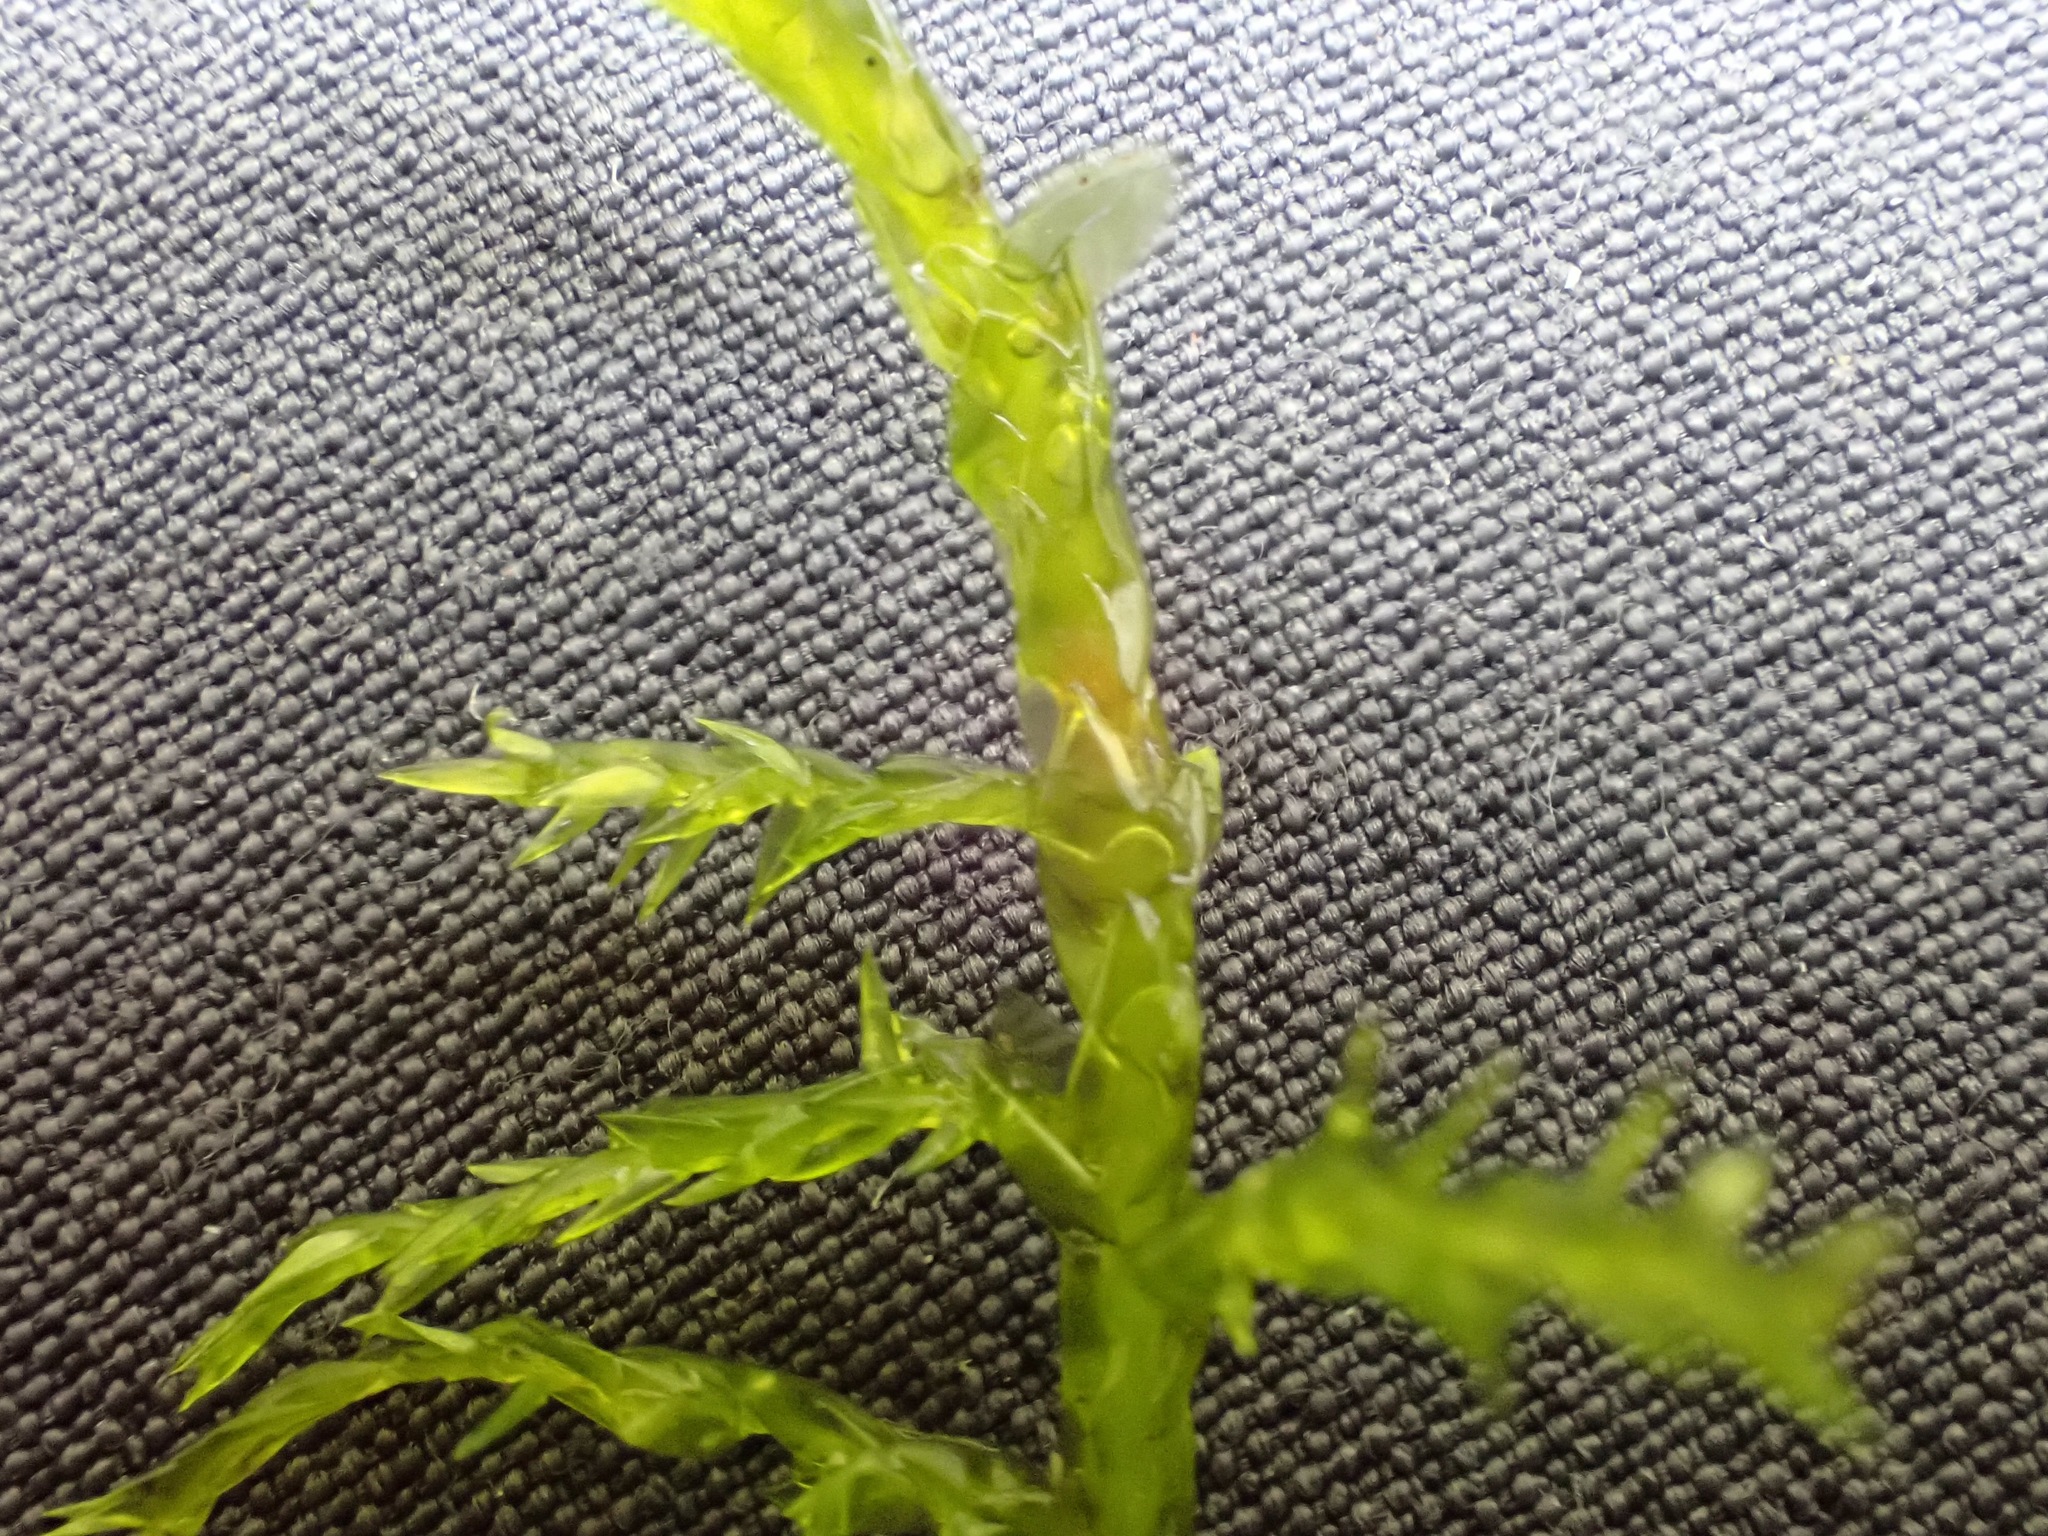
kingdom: Plantae
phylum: Bryophyta
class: Bryopsida
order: Hypnales
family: Pylaisiaceae
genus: Calliergonella
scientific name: Calliergonella cuspidata
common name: Common large wetland moss
